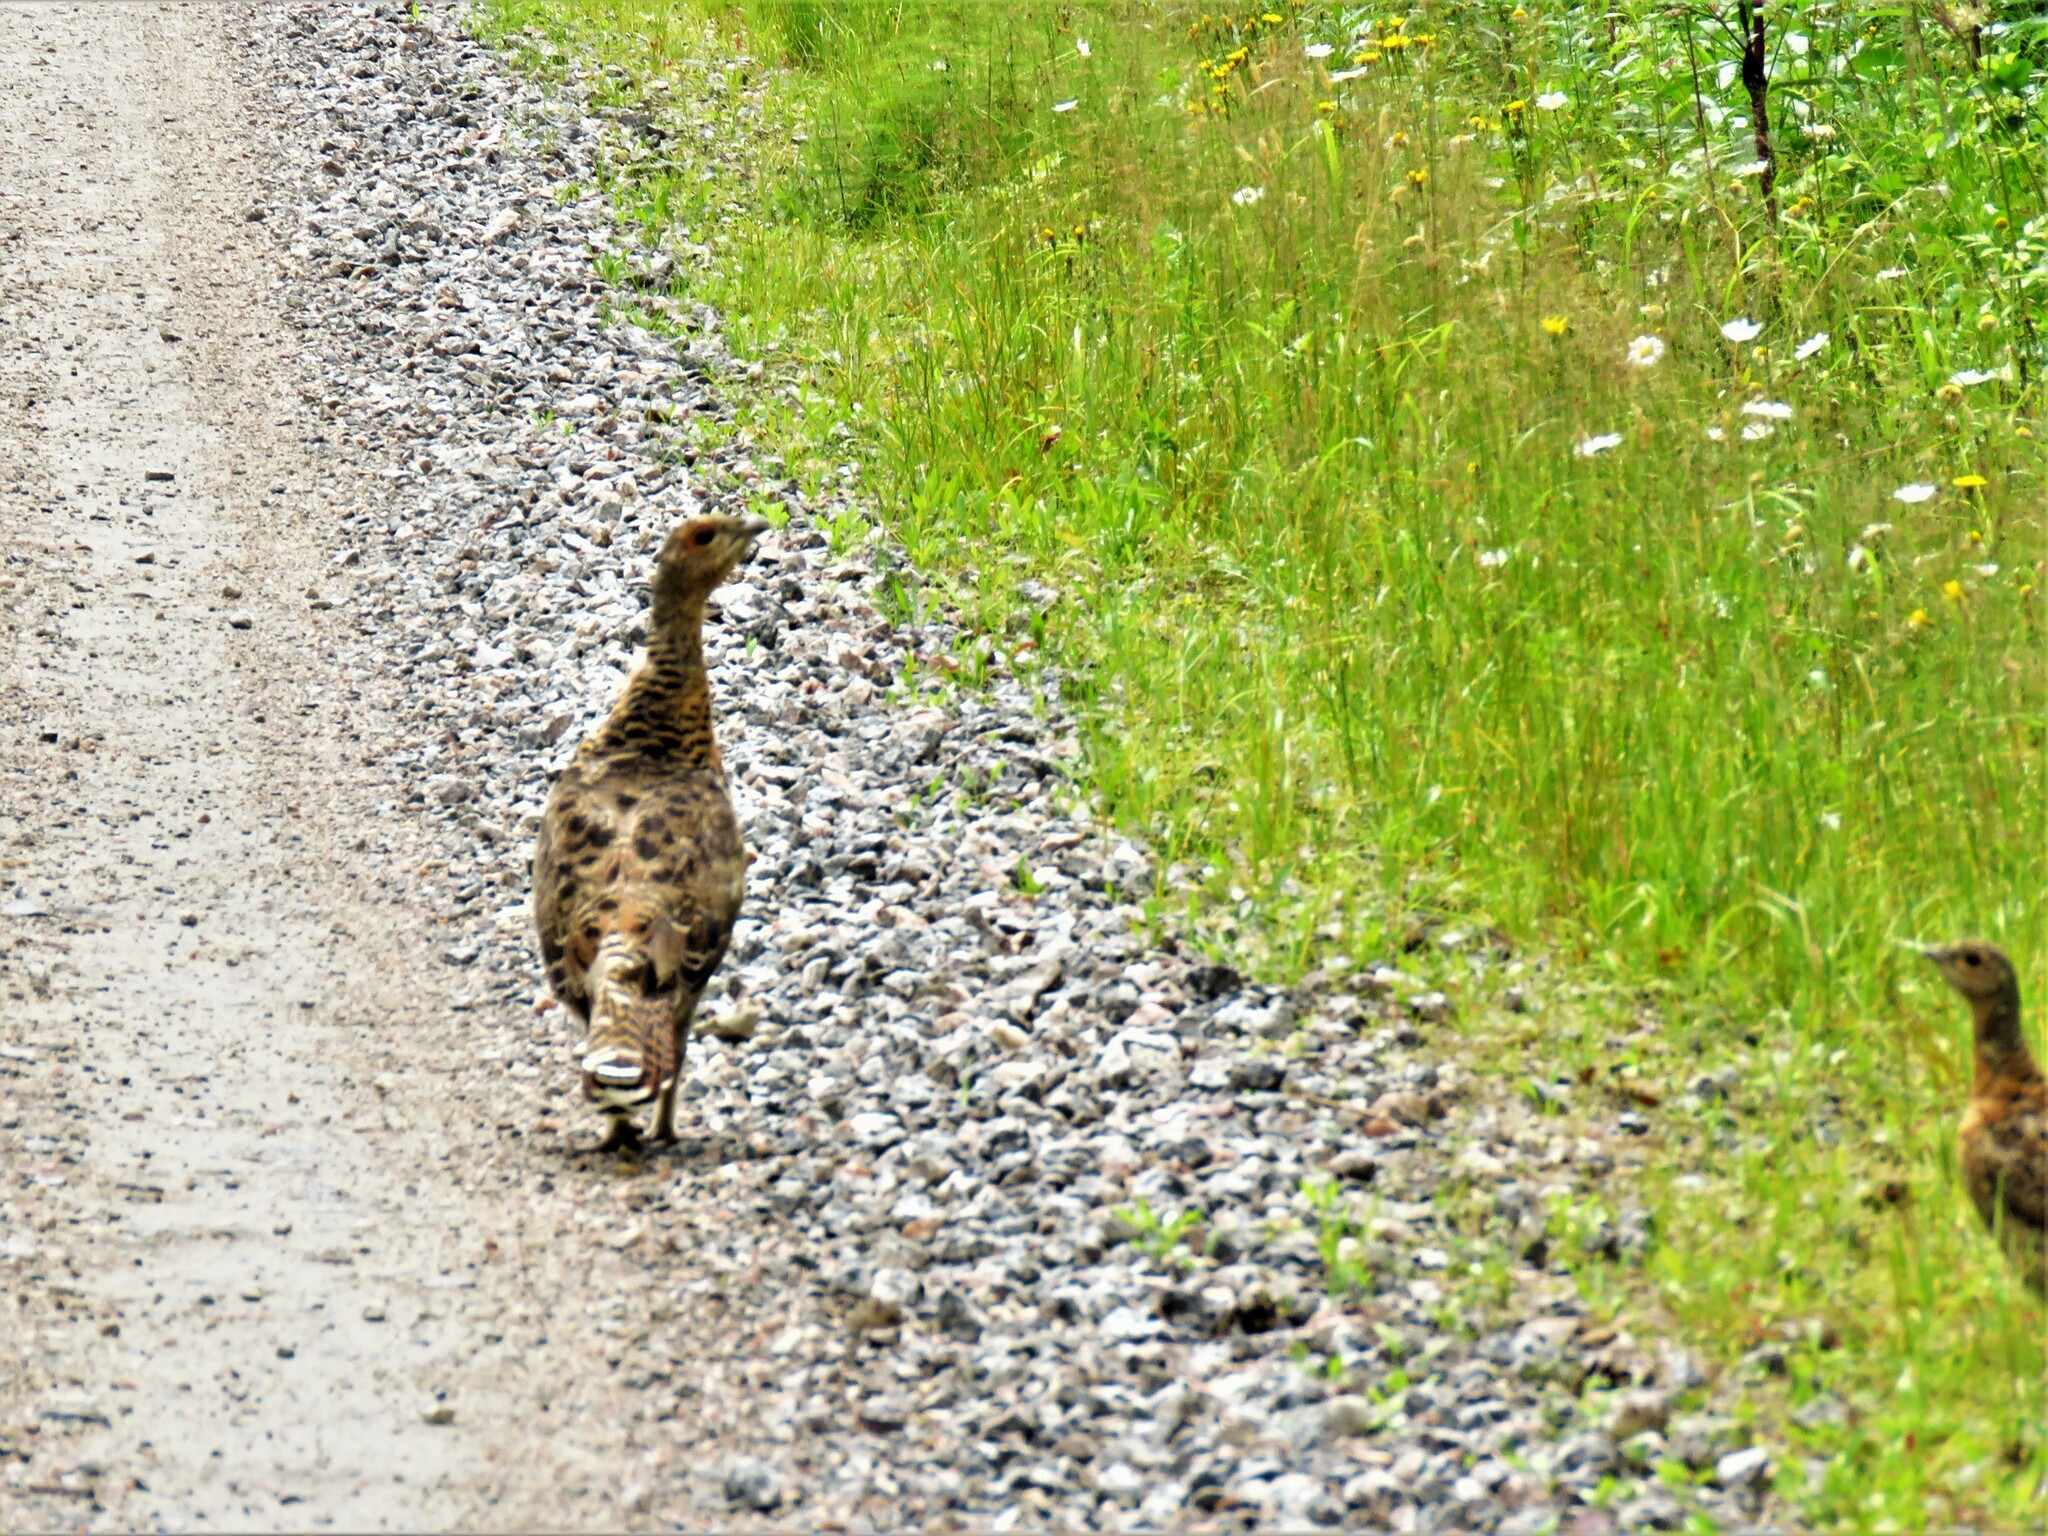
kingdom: Animalia
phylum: Chordata
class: Aves
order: Galliformes
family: Phasianidae
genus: Tetrao
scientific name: Tetrao urogallus
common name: Western capercaillie
